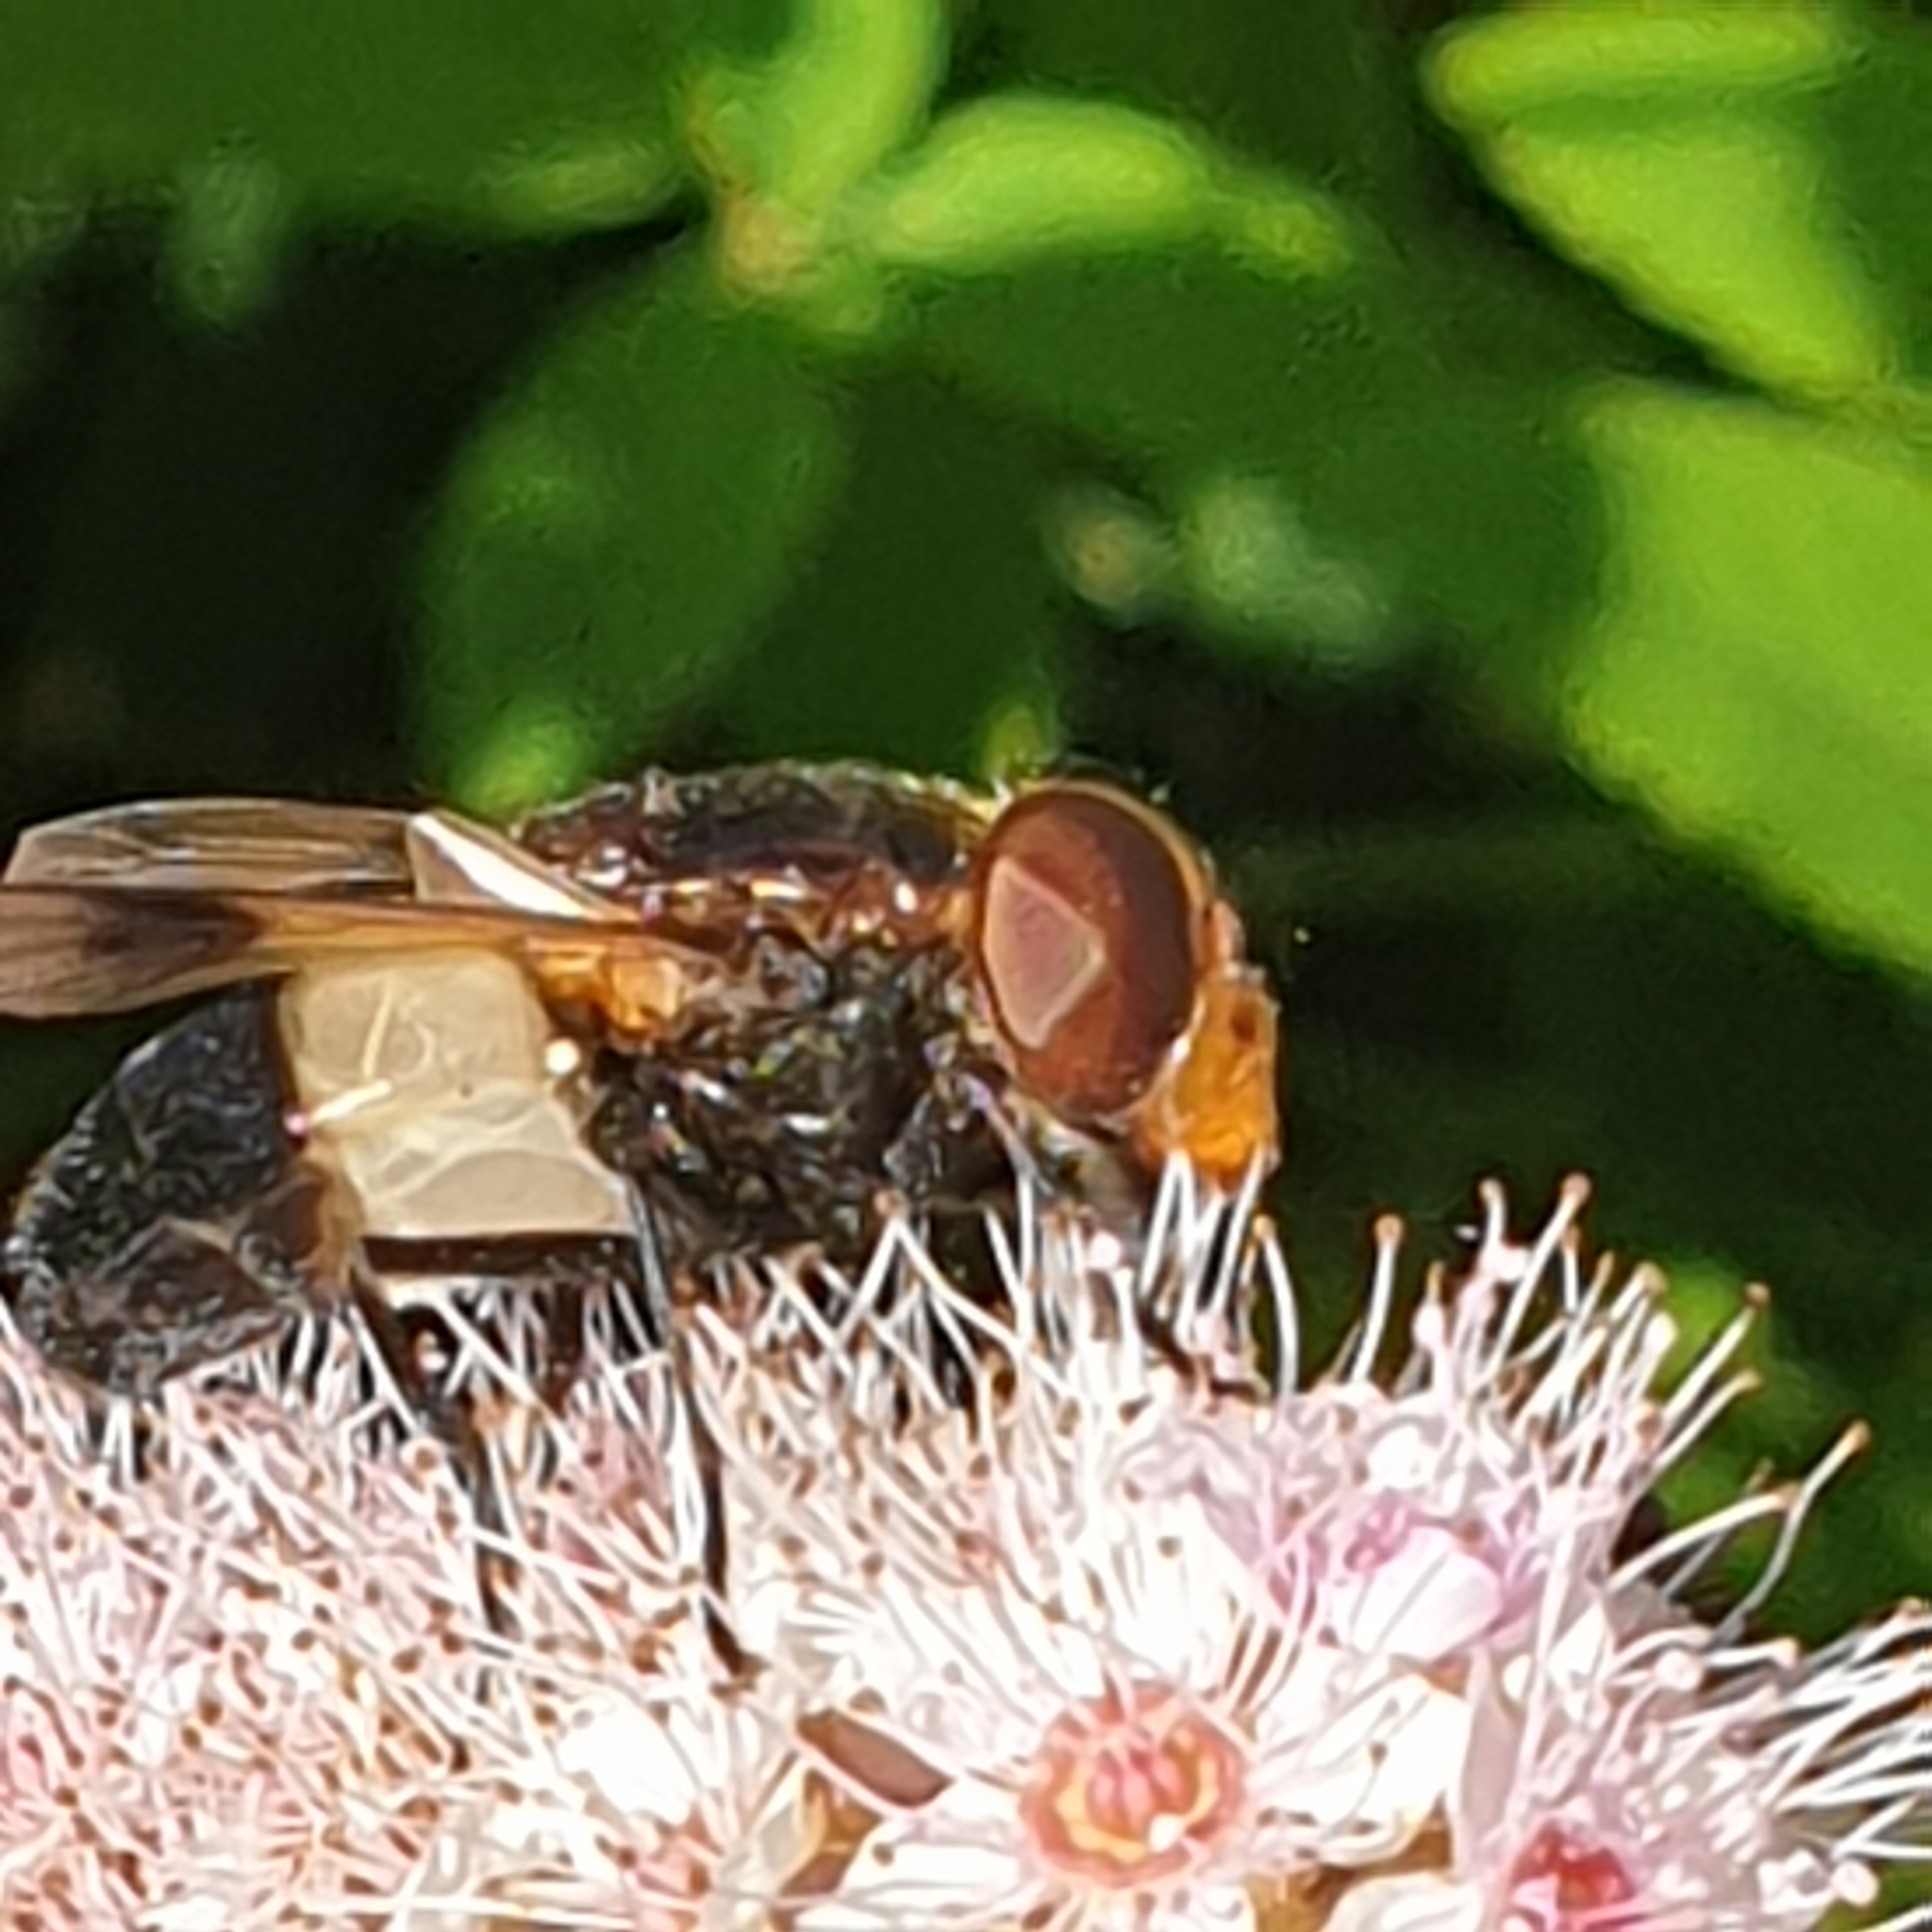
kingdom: Animalia
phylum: Arthropoda
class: Insecta
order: Diptera
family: Syrphidae
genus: Volucella
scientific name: Volucella pellucens
